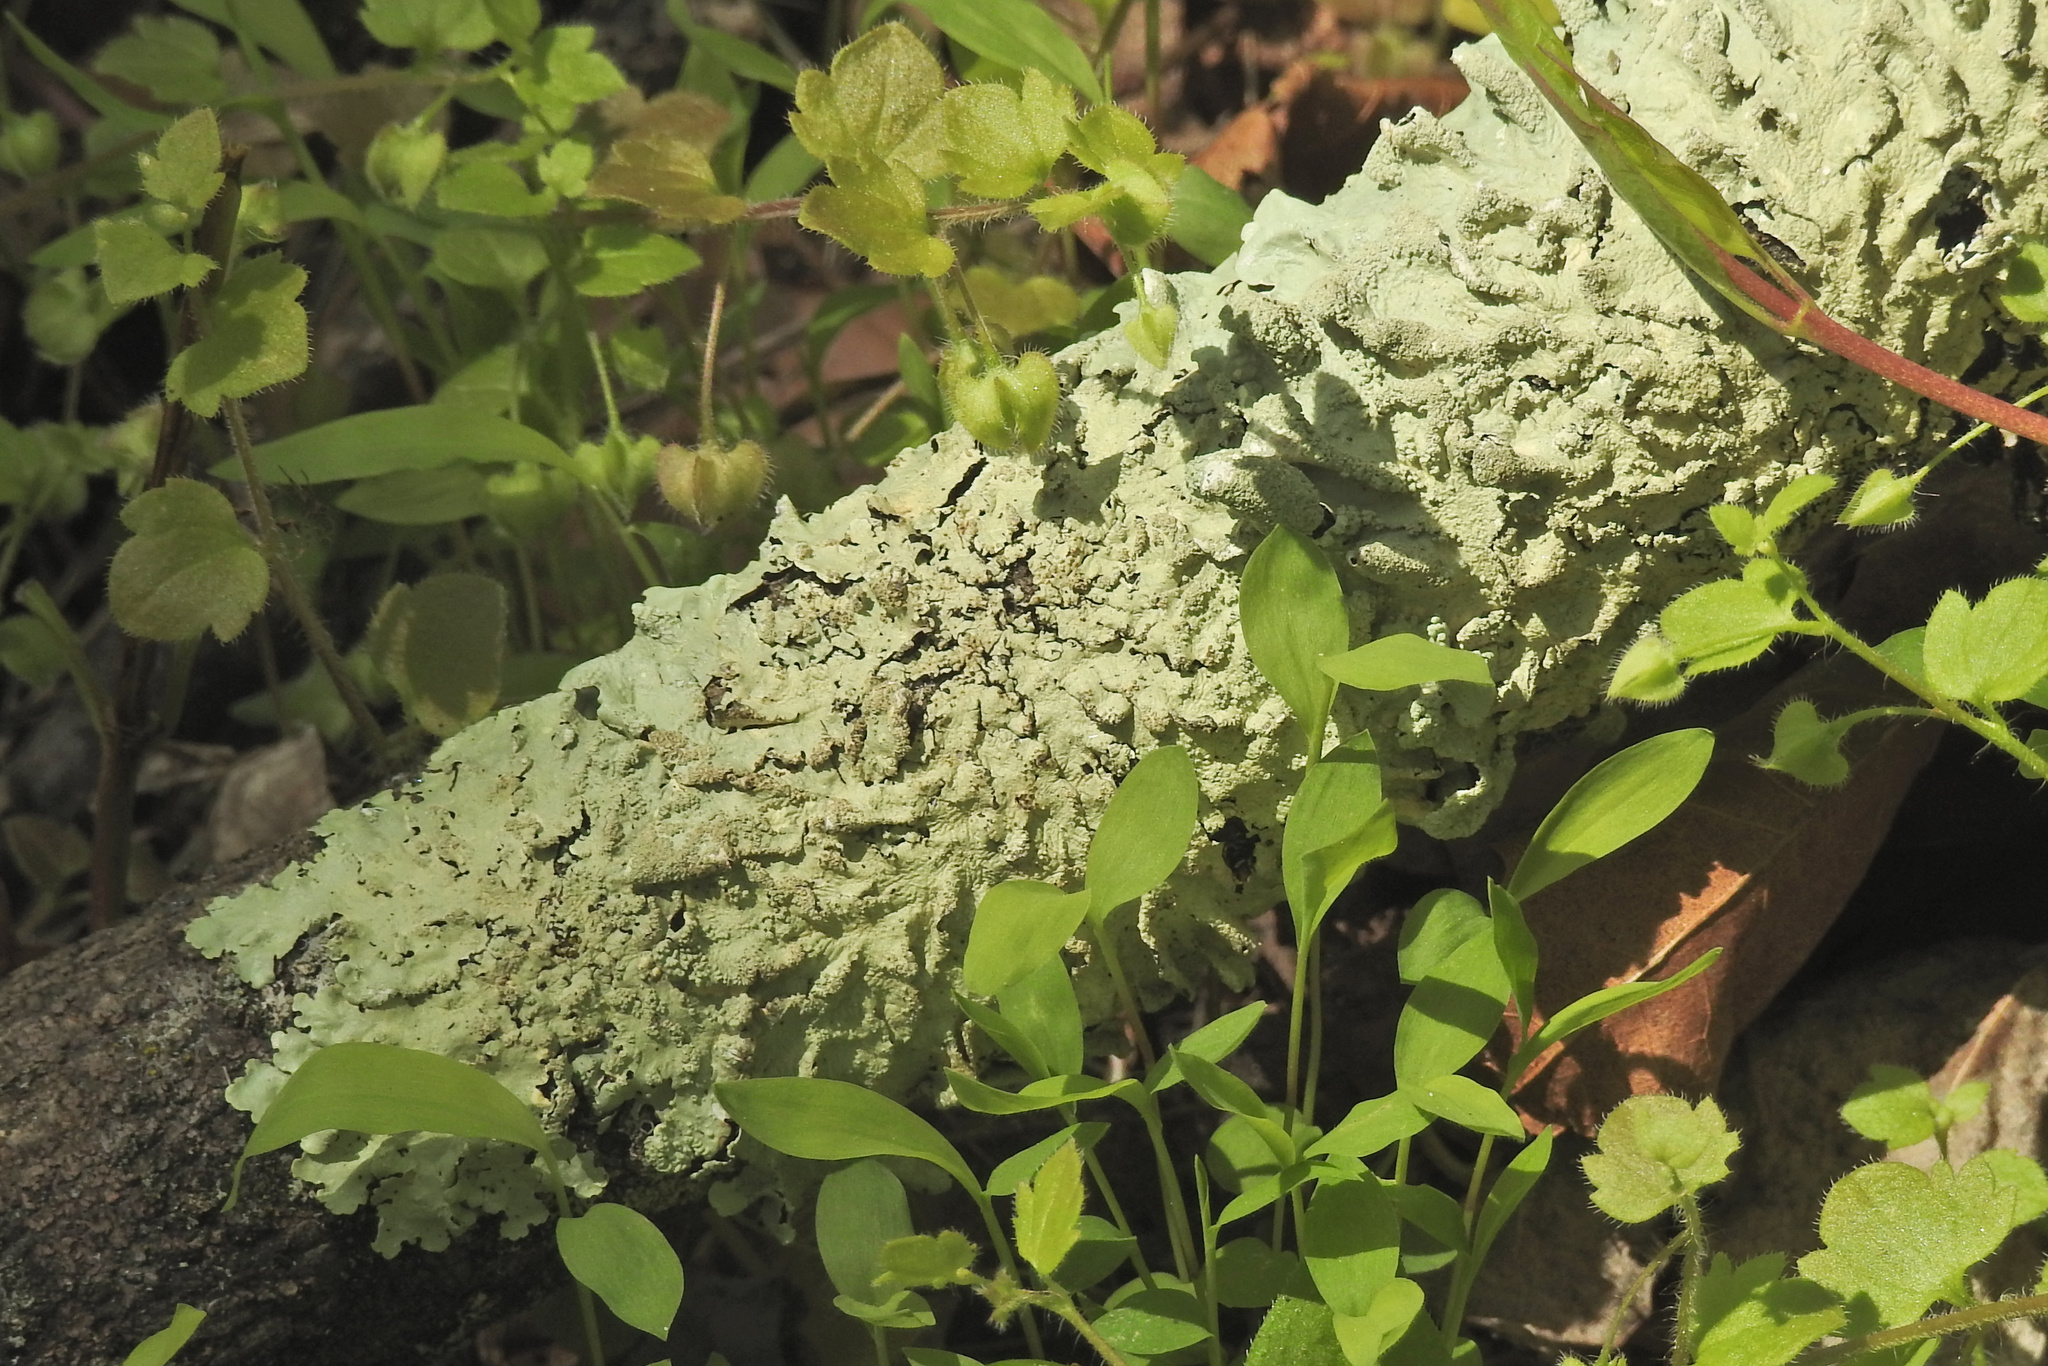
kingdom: Fungi
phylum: Ascomycota
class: Lecanoromycetes
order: Lecanorales
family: Parmeliaceae
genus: Flavoparmelia
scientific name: Flavoparmelia caperata
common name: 40-mile per hour lichen
